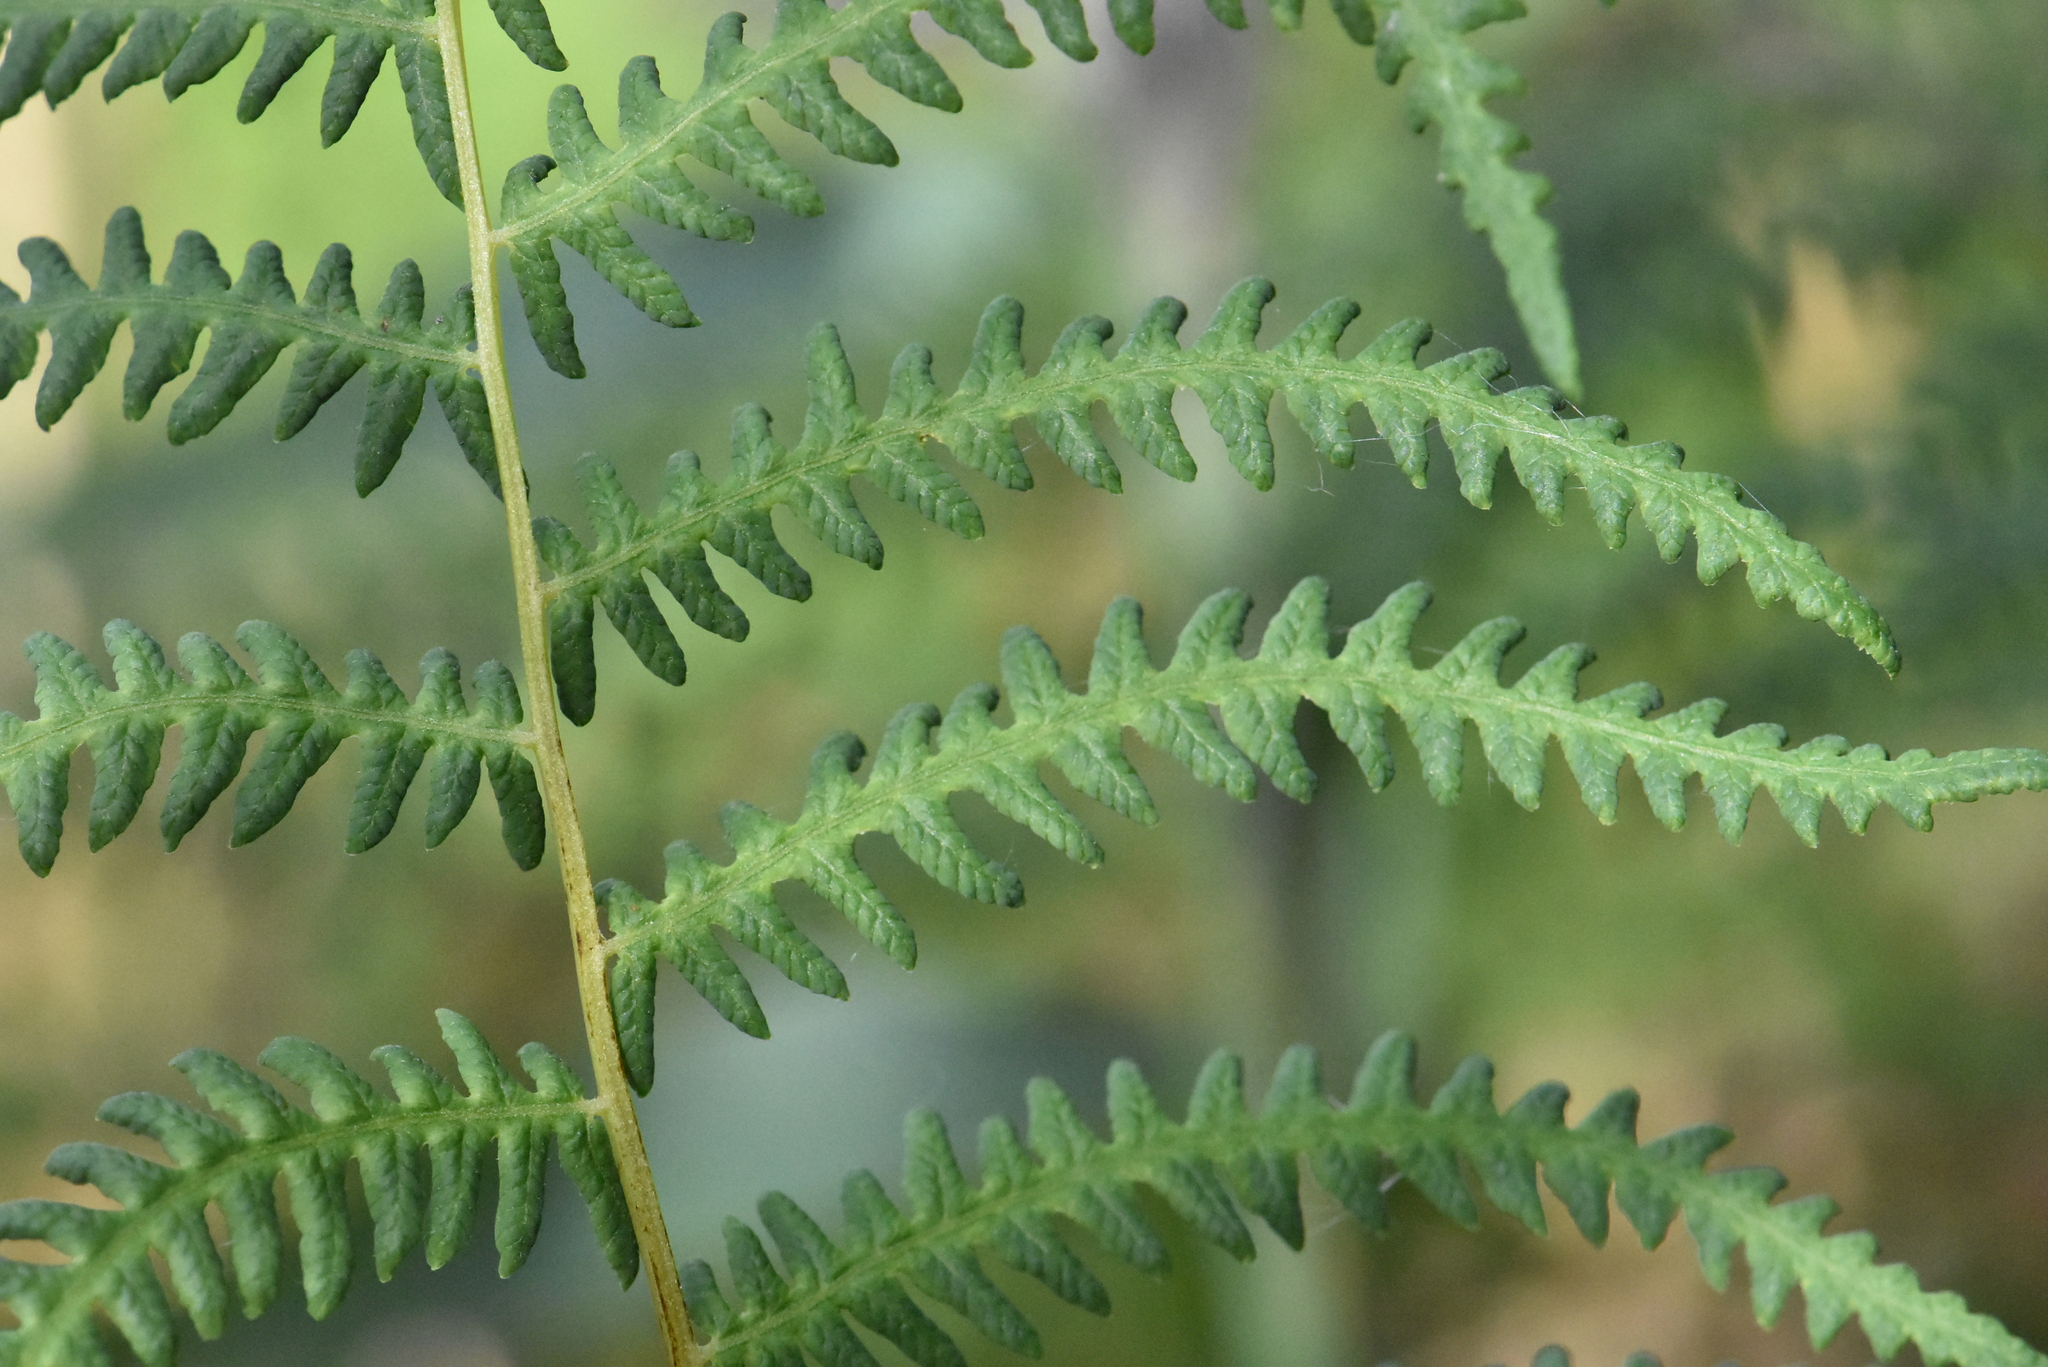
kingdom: Plantae
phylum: Tracheophyta
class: Polypodiopsida
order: Polypodiales
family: Thelypteridaceae
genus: Thelypteris
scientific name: Thelypteris palustris
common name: Marsh fern
